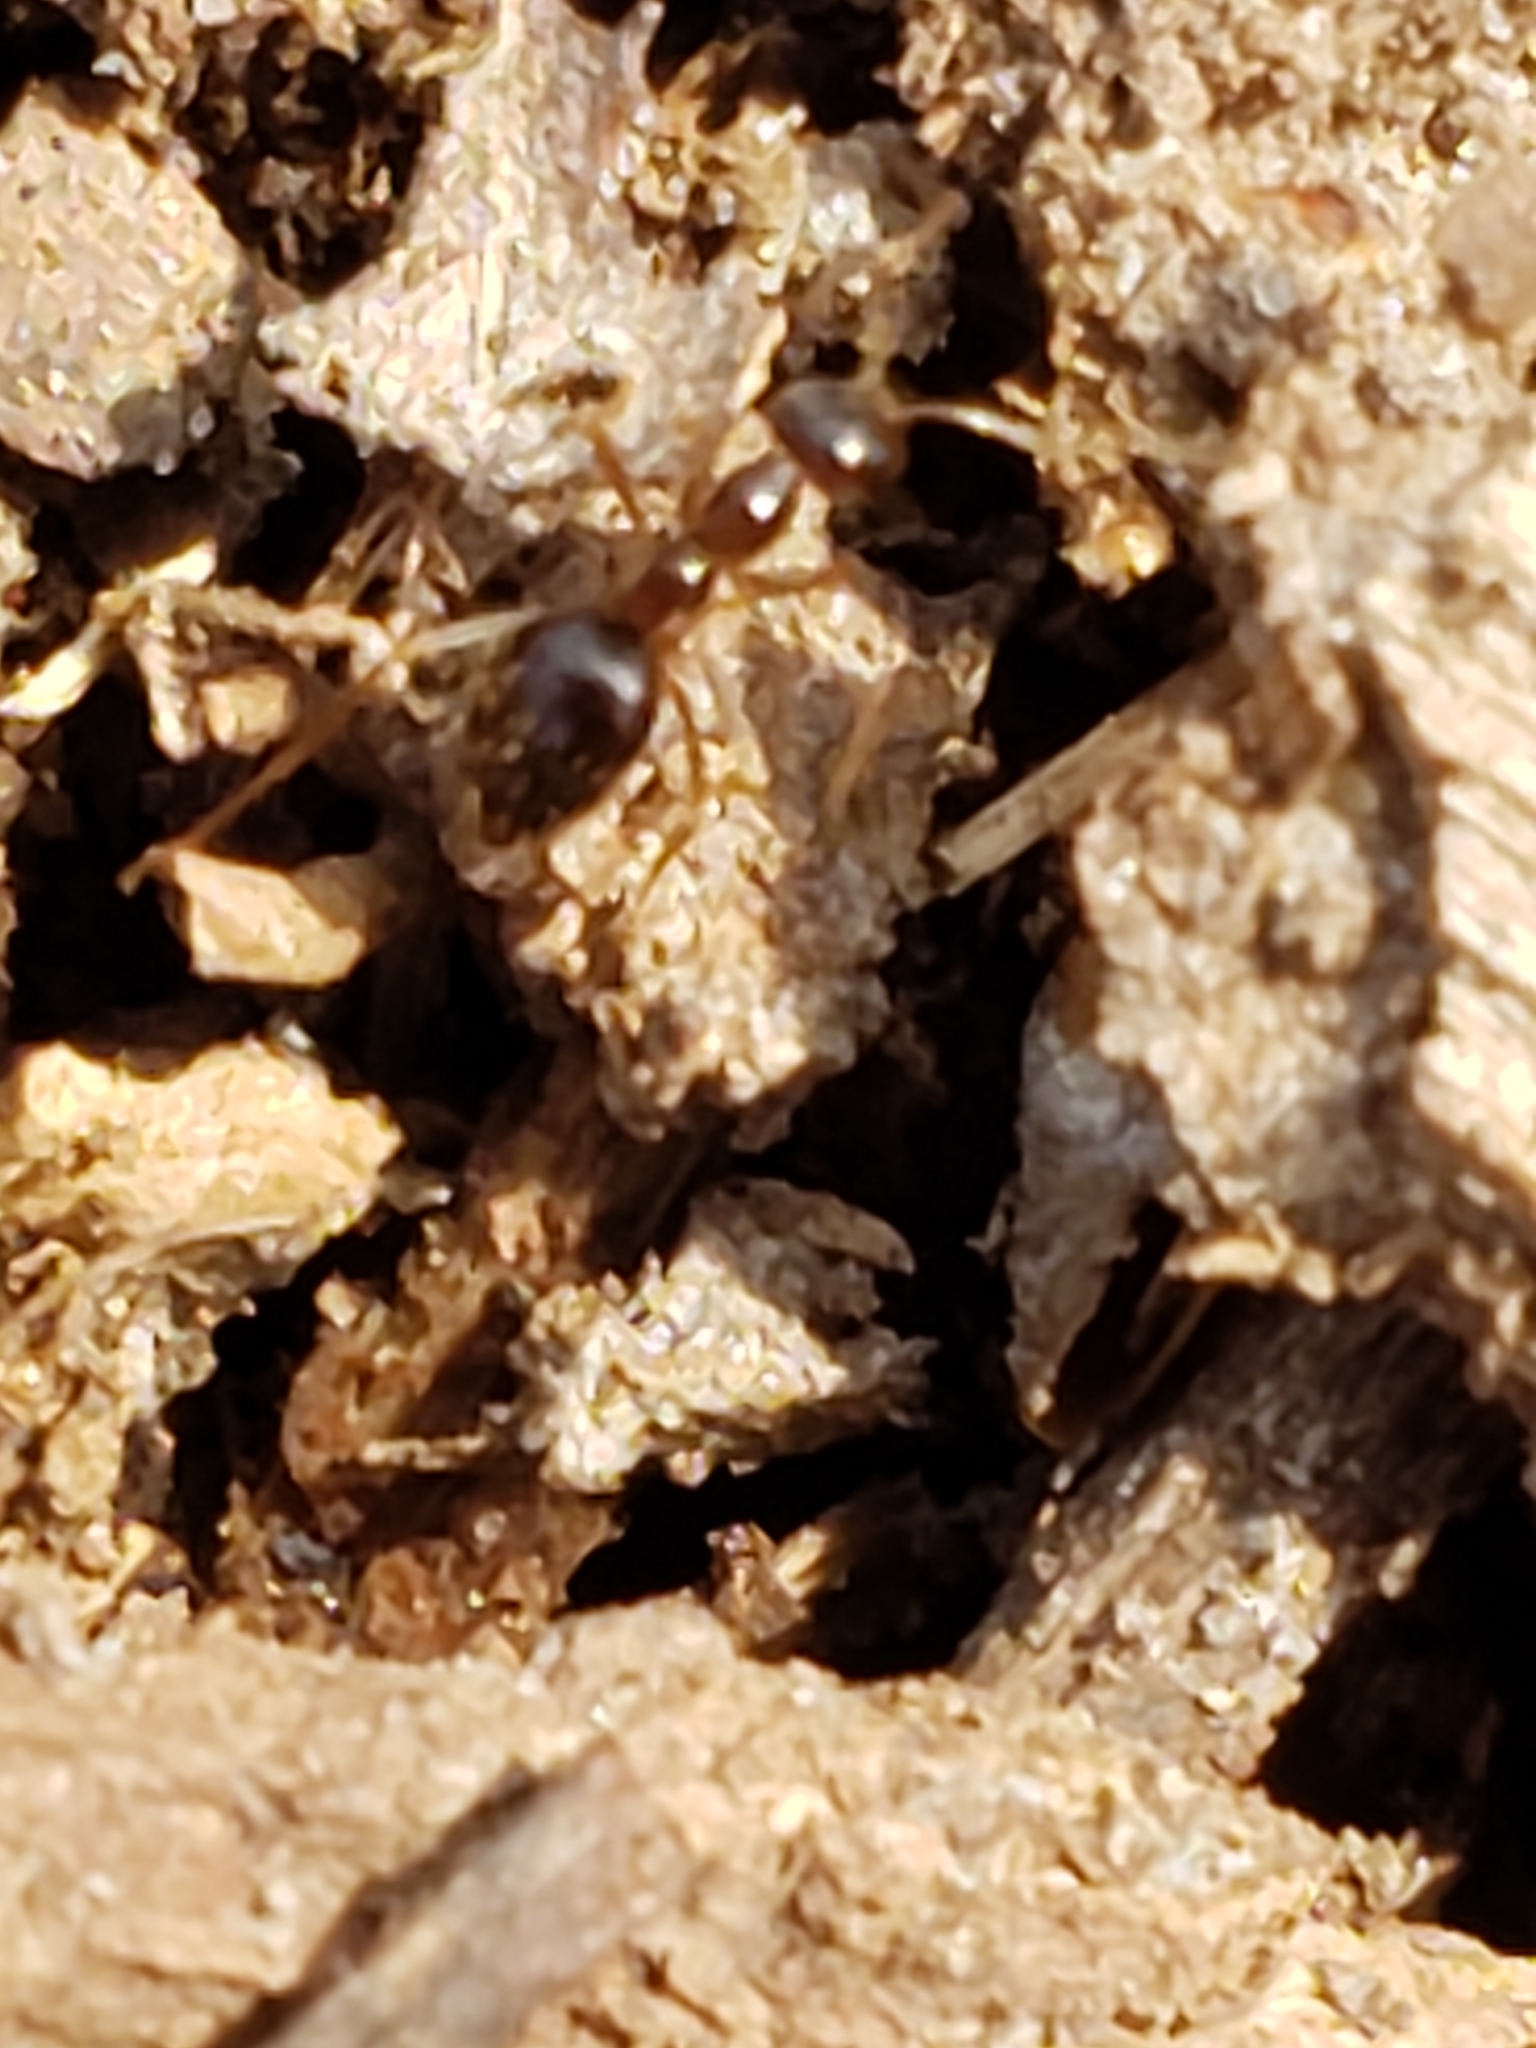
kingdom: Animalia
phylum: Arthropoda
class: Insecta
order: Hymenoptera
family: Formicidae
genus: Prenolepis
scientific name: Prenolepis imparis
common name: Small honey ant
